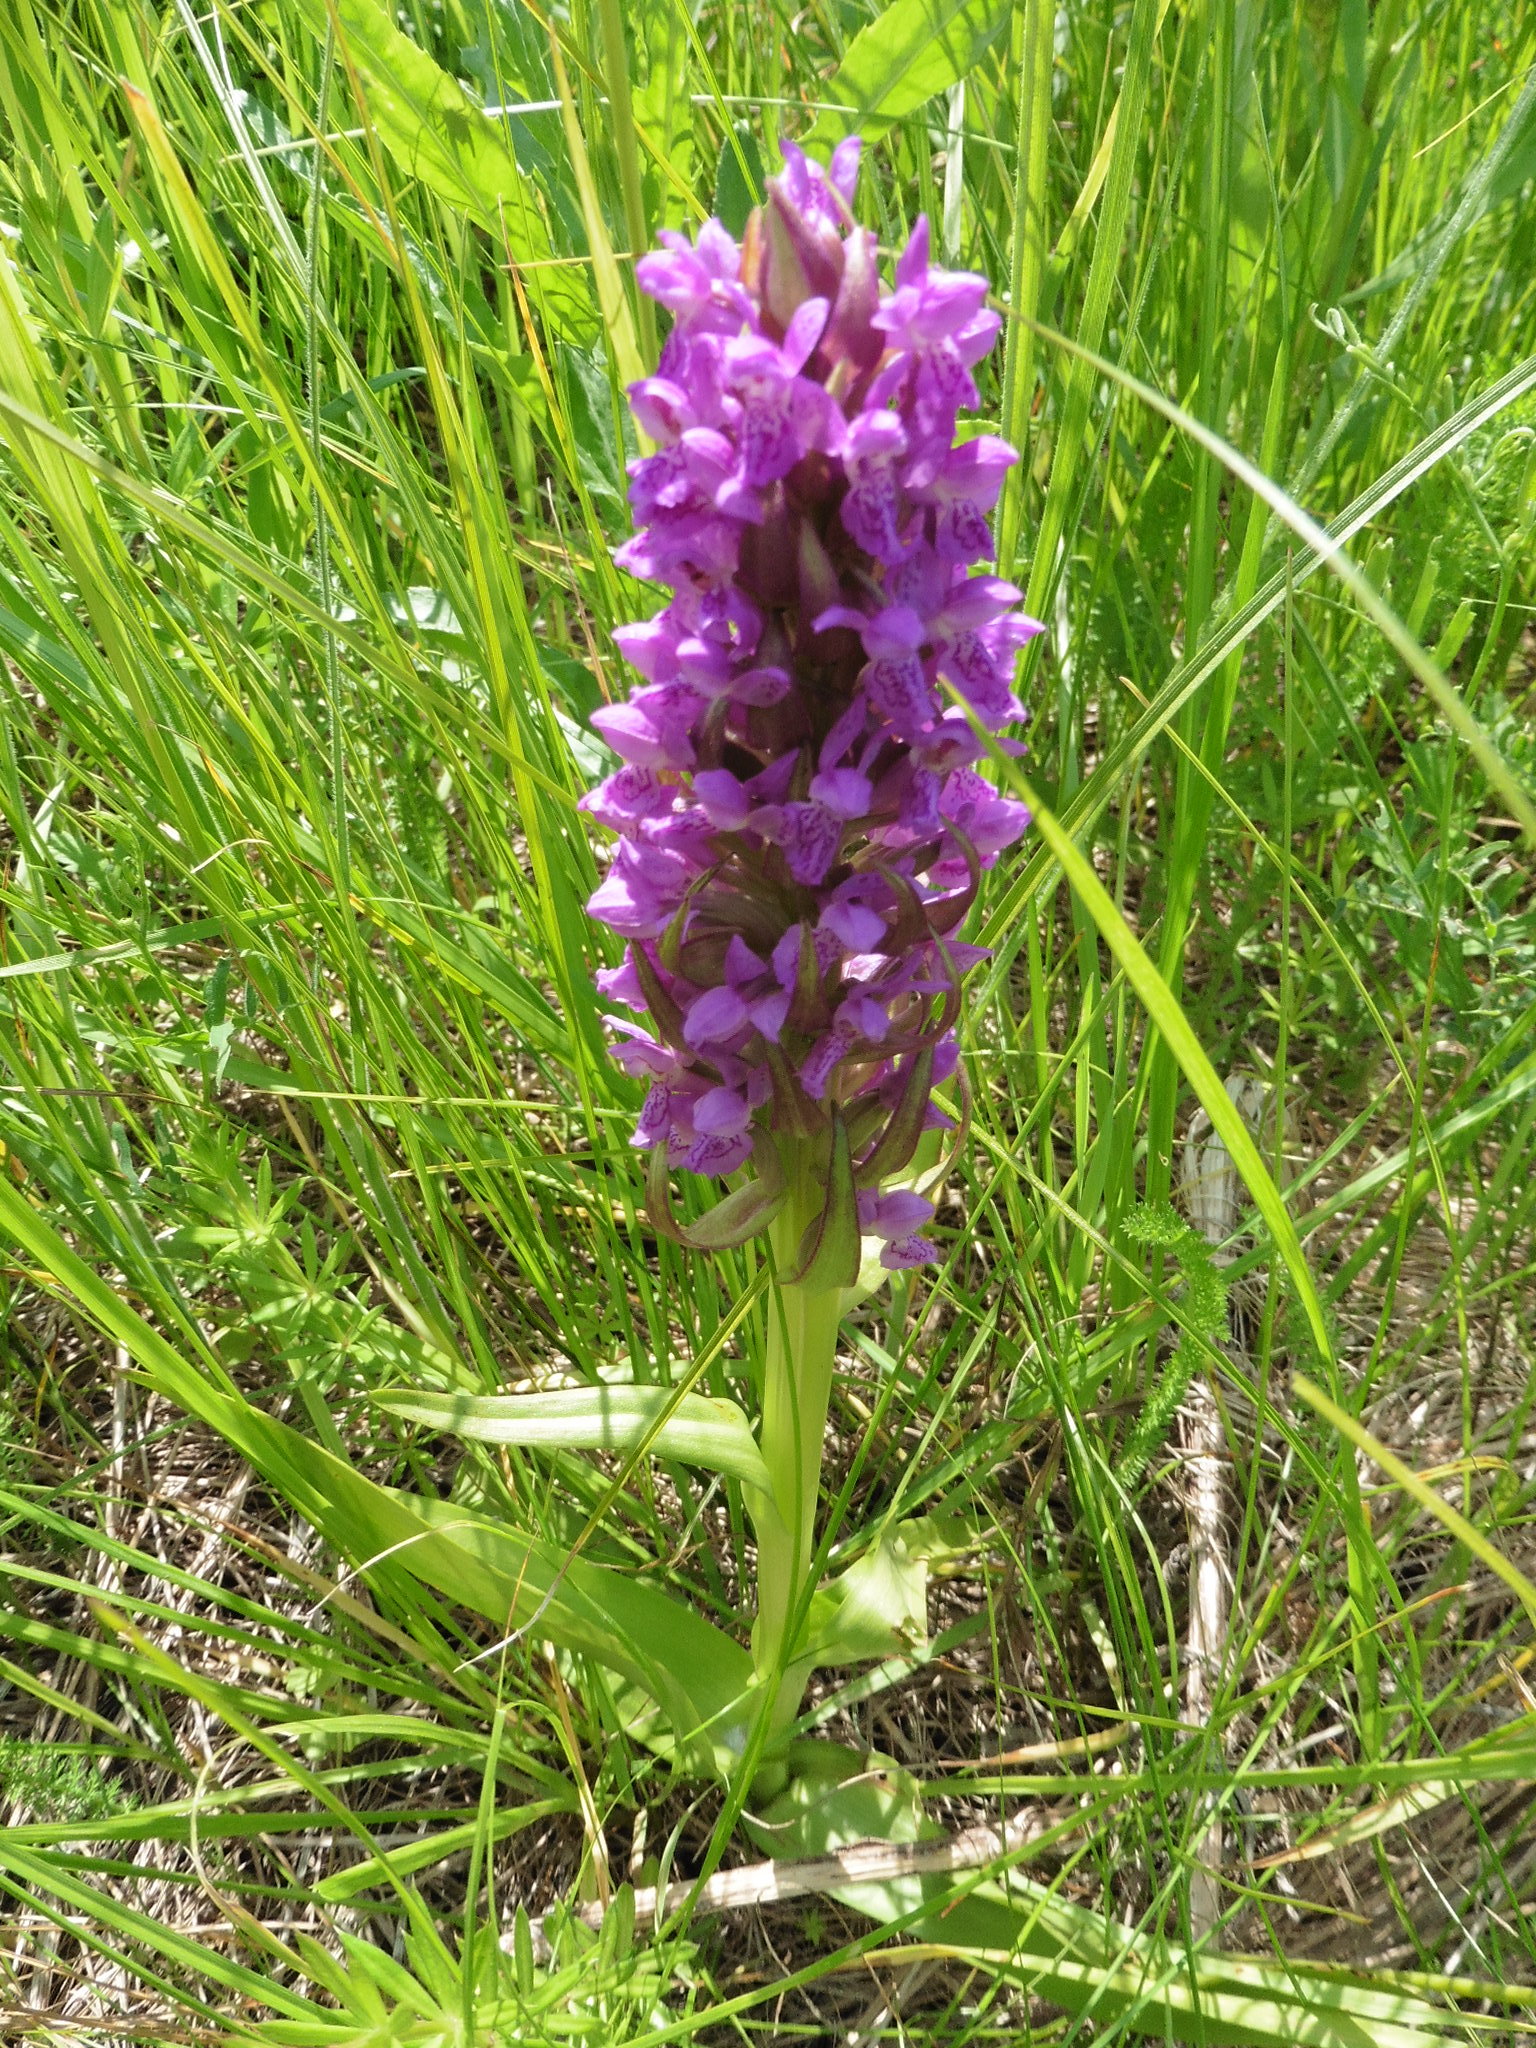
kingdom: Plantae
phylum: Tracheophyta
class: Liliopsida
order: Asparagales
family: Orchidaceae
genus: Dactylorhiza
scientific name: Dactylorhiza incarnata
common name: Early marsh-orchid
